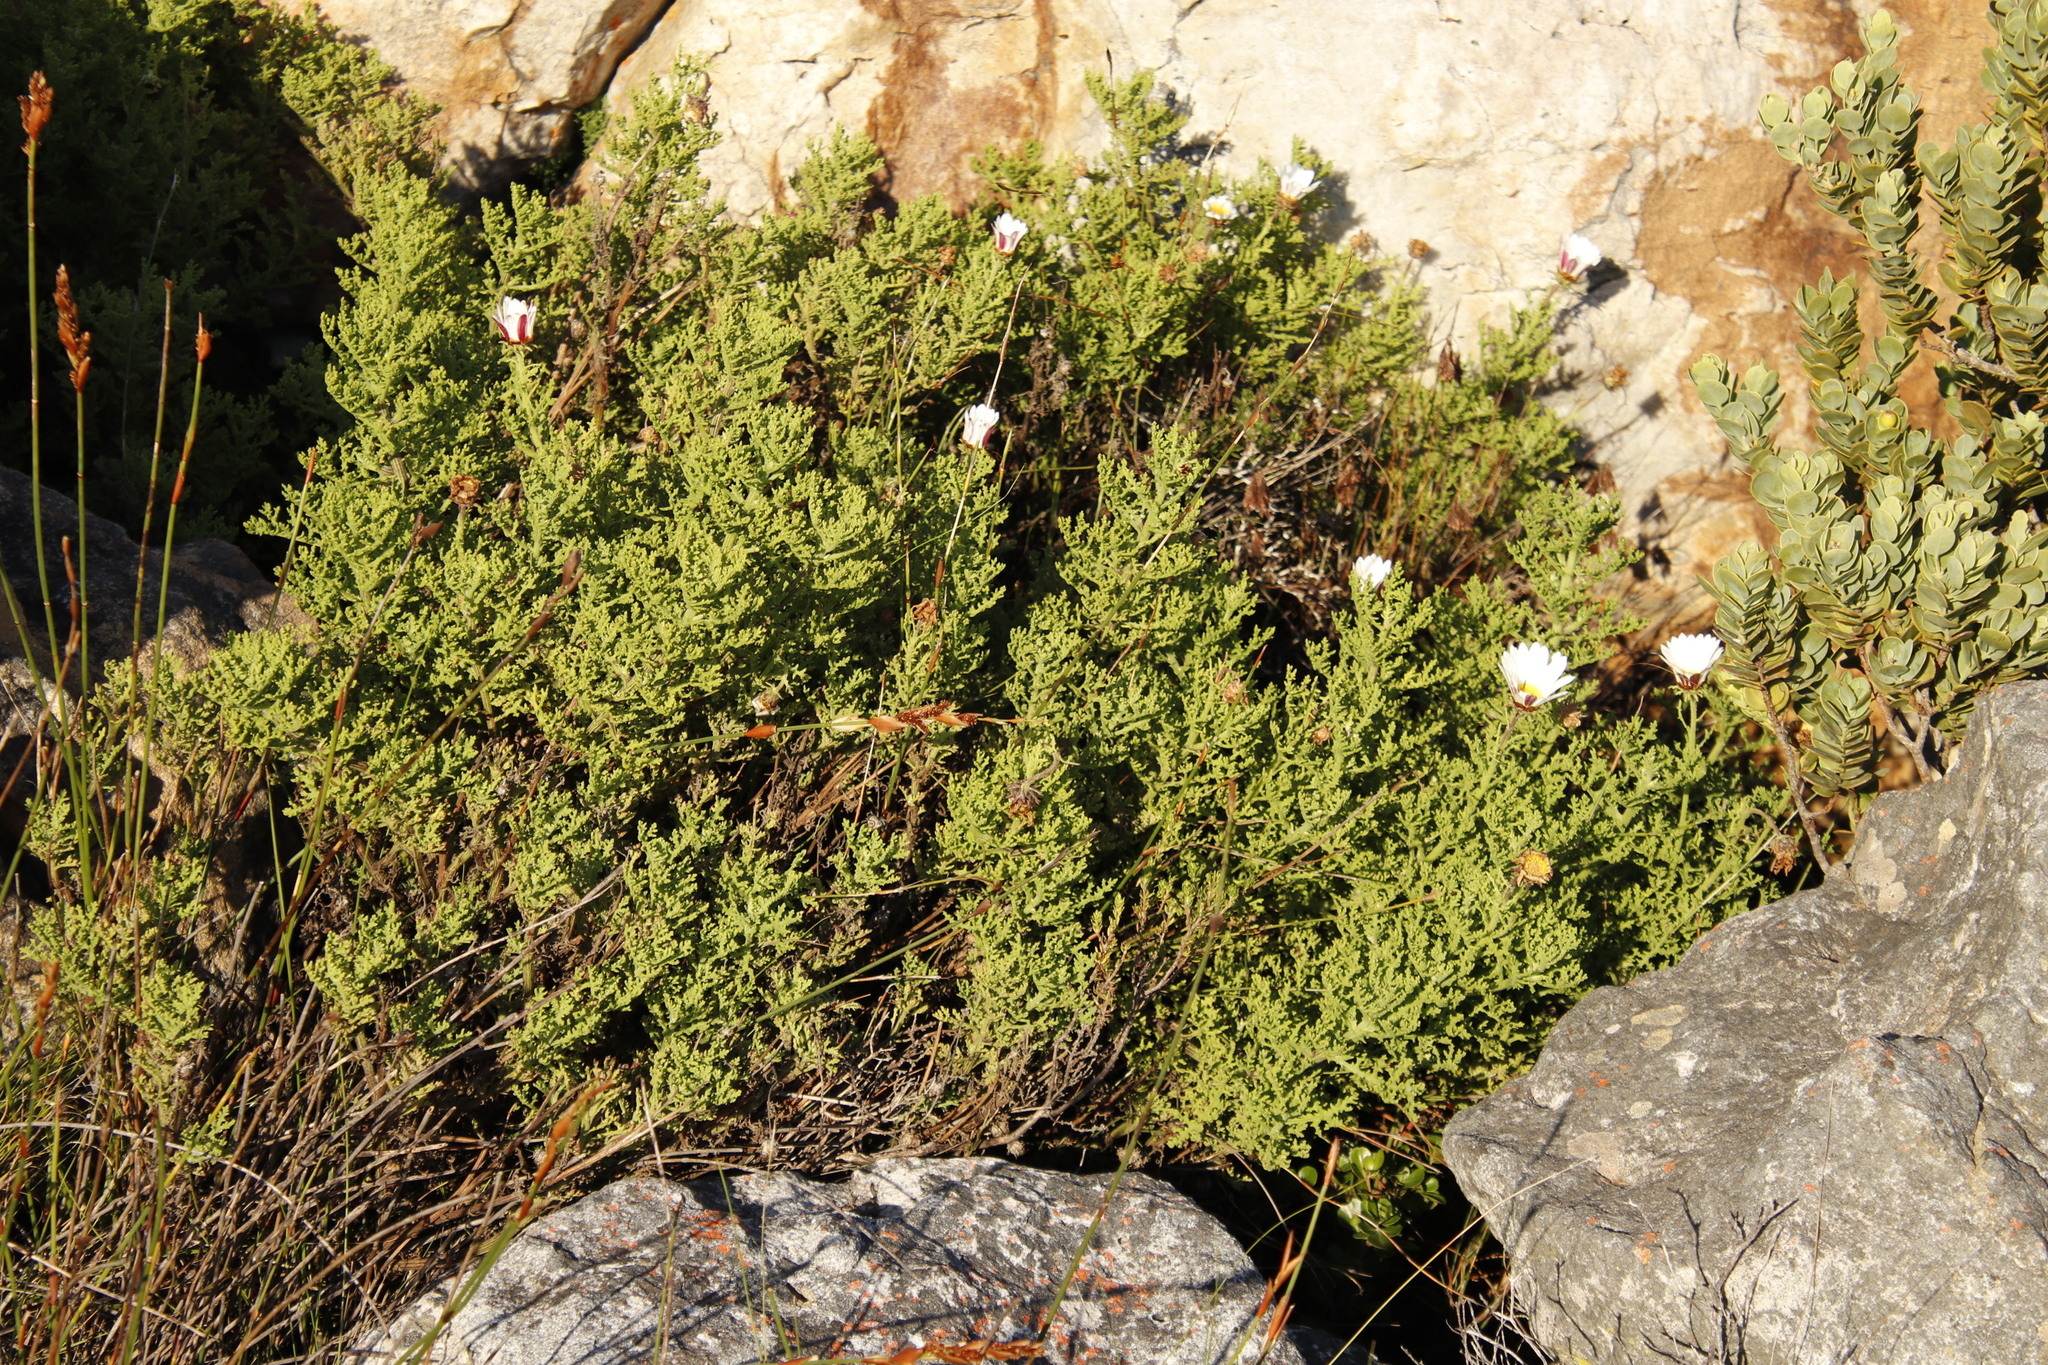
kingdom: Plantae
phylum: Tracheophyta
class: Magnoliopsida
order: Asterales
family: Asteraceae
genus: Arctotis
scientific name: Arctotis aspera
